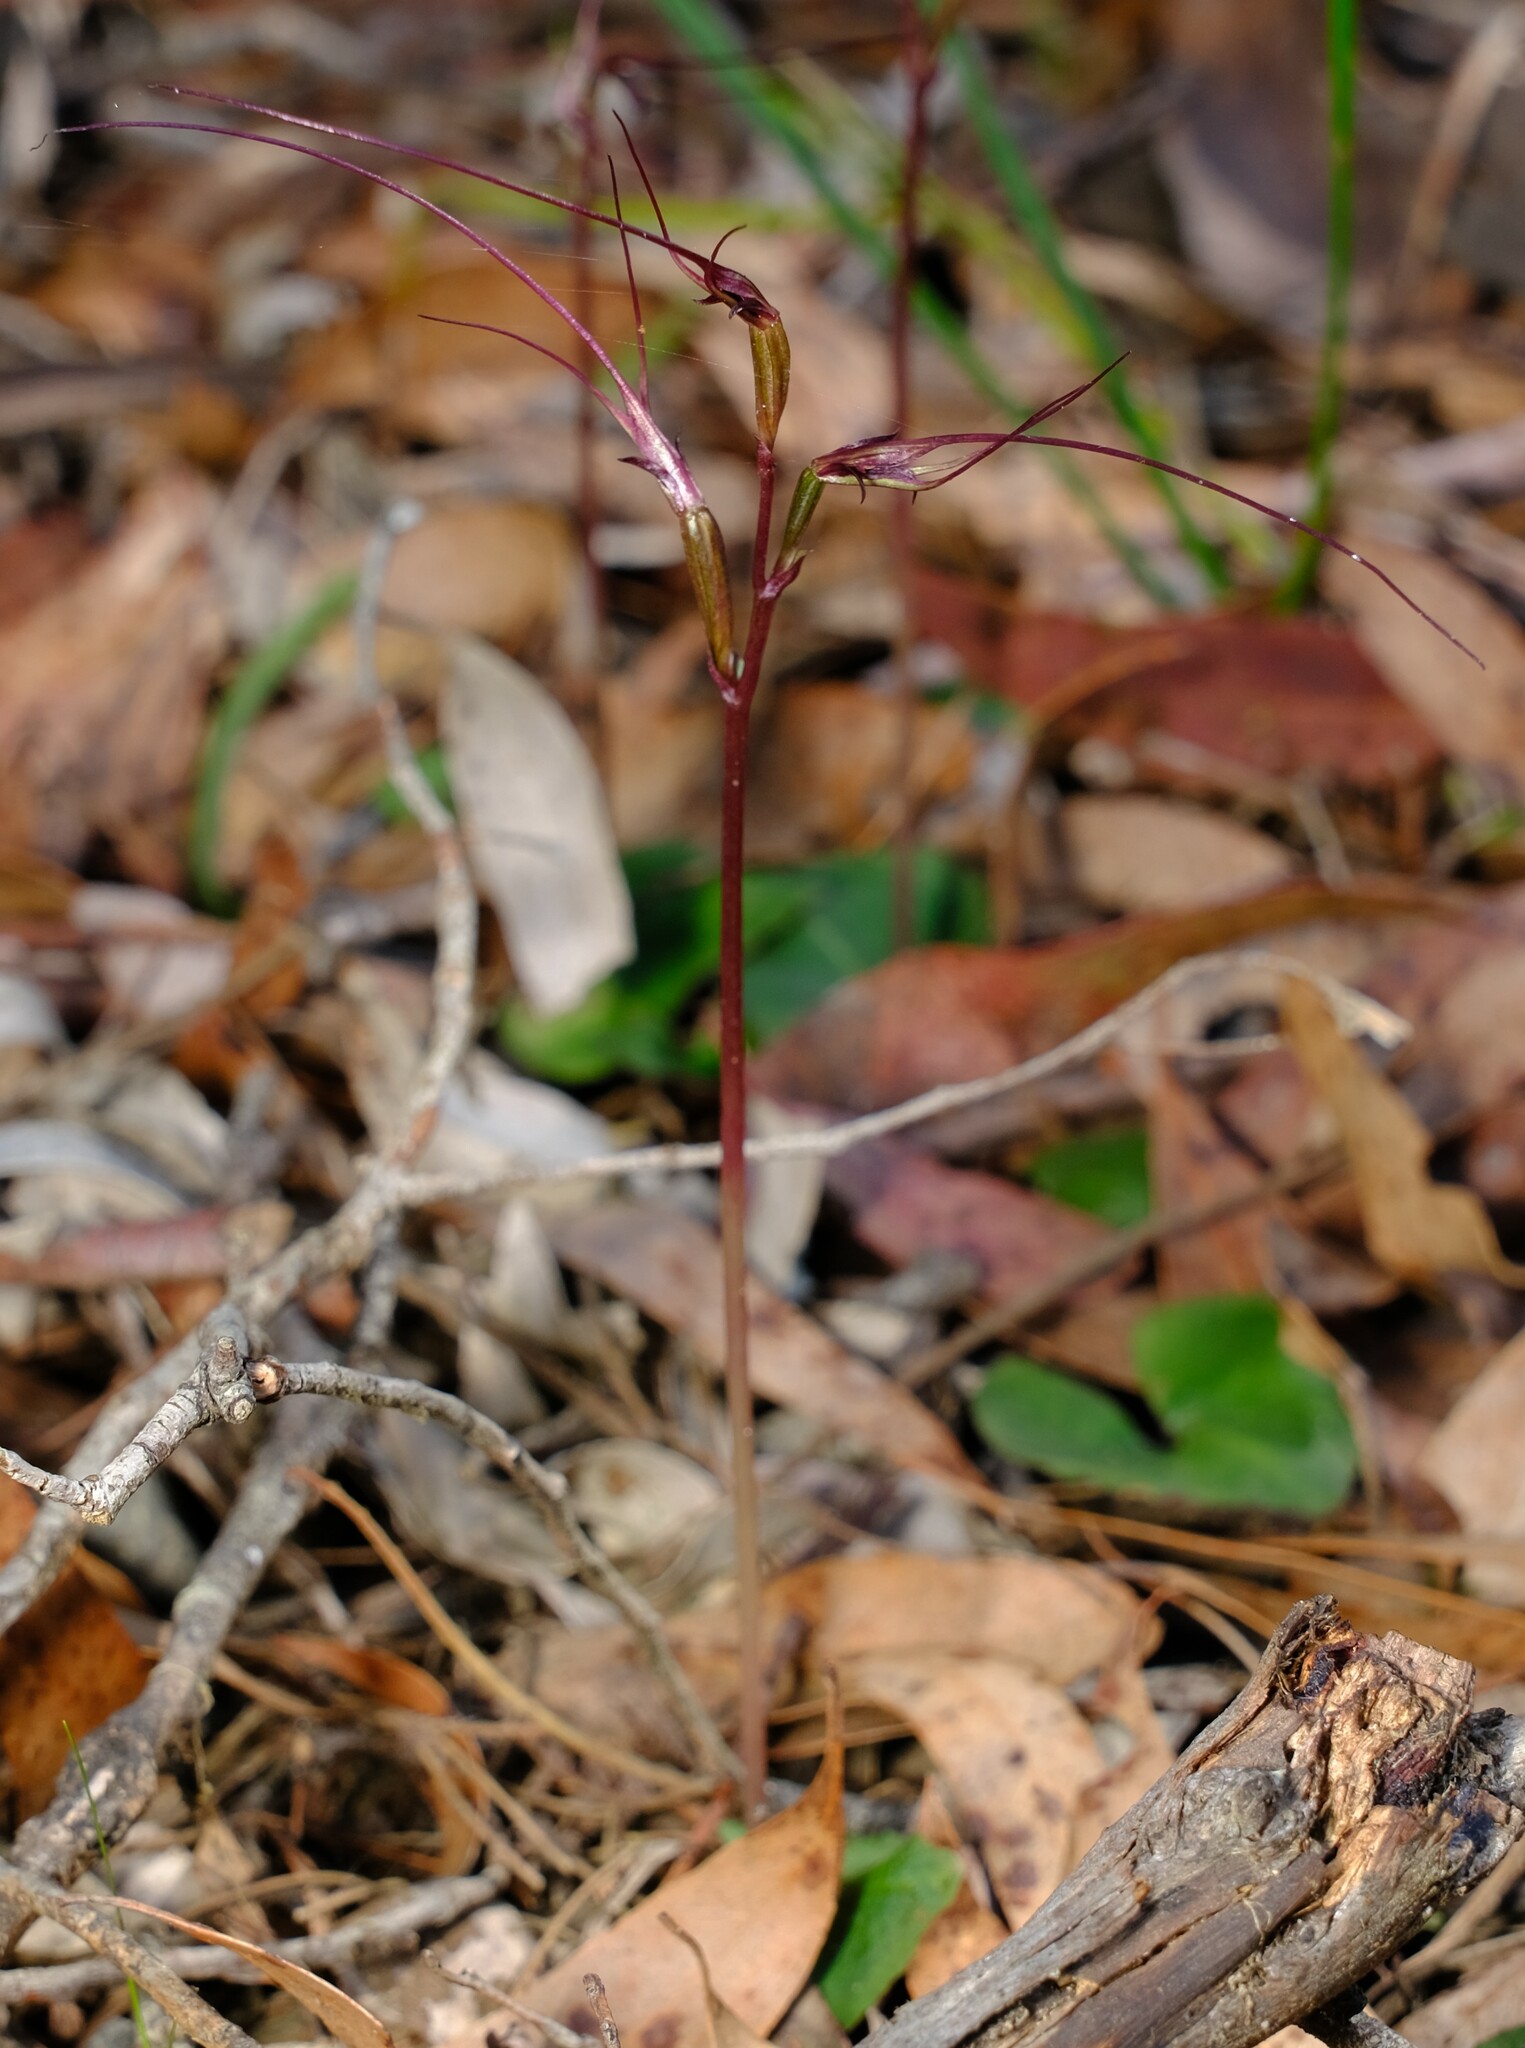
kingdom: Plantae
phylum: Tracheophyta
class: Liliopsida
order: Asparagales
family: Orchidaceae
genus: Acianthus
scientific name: Acianthus caudatus
